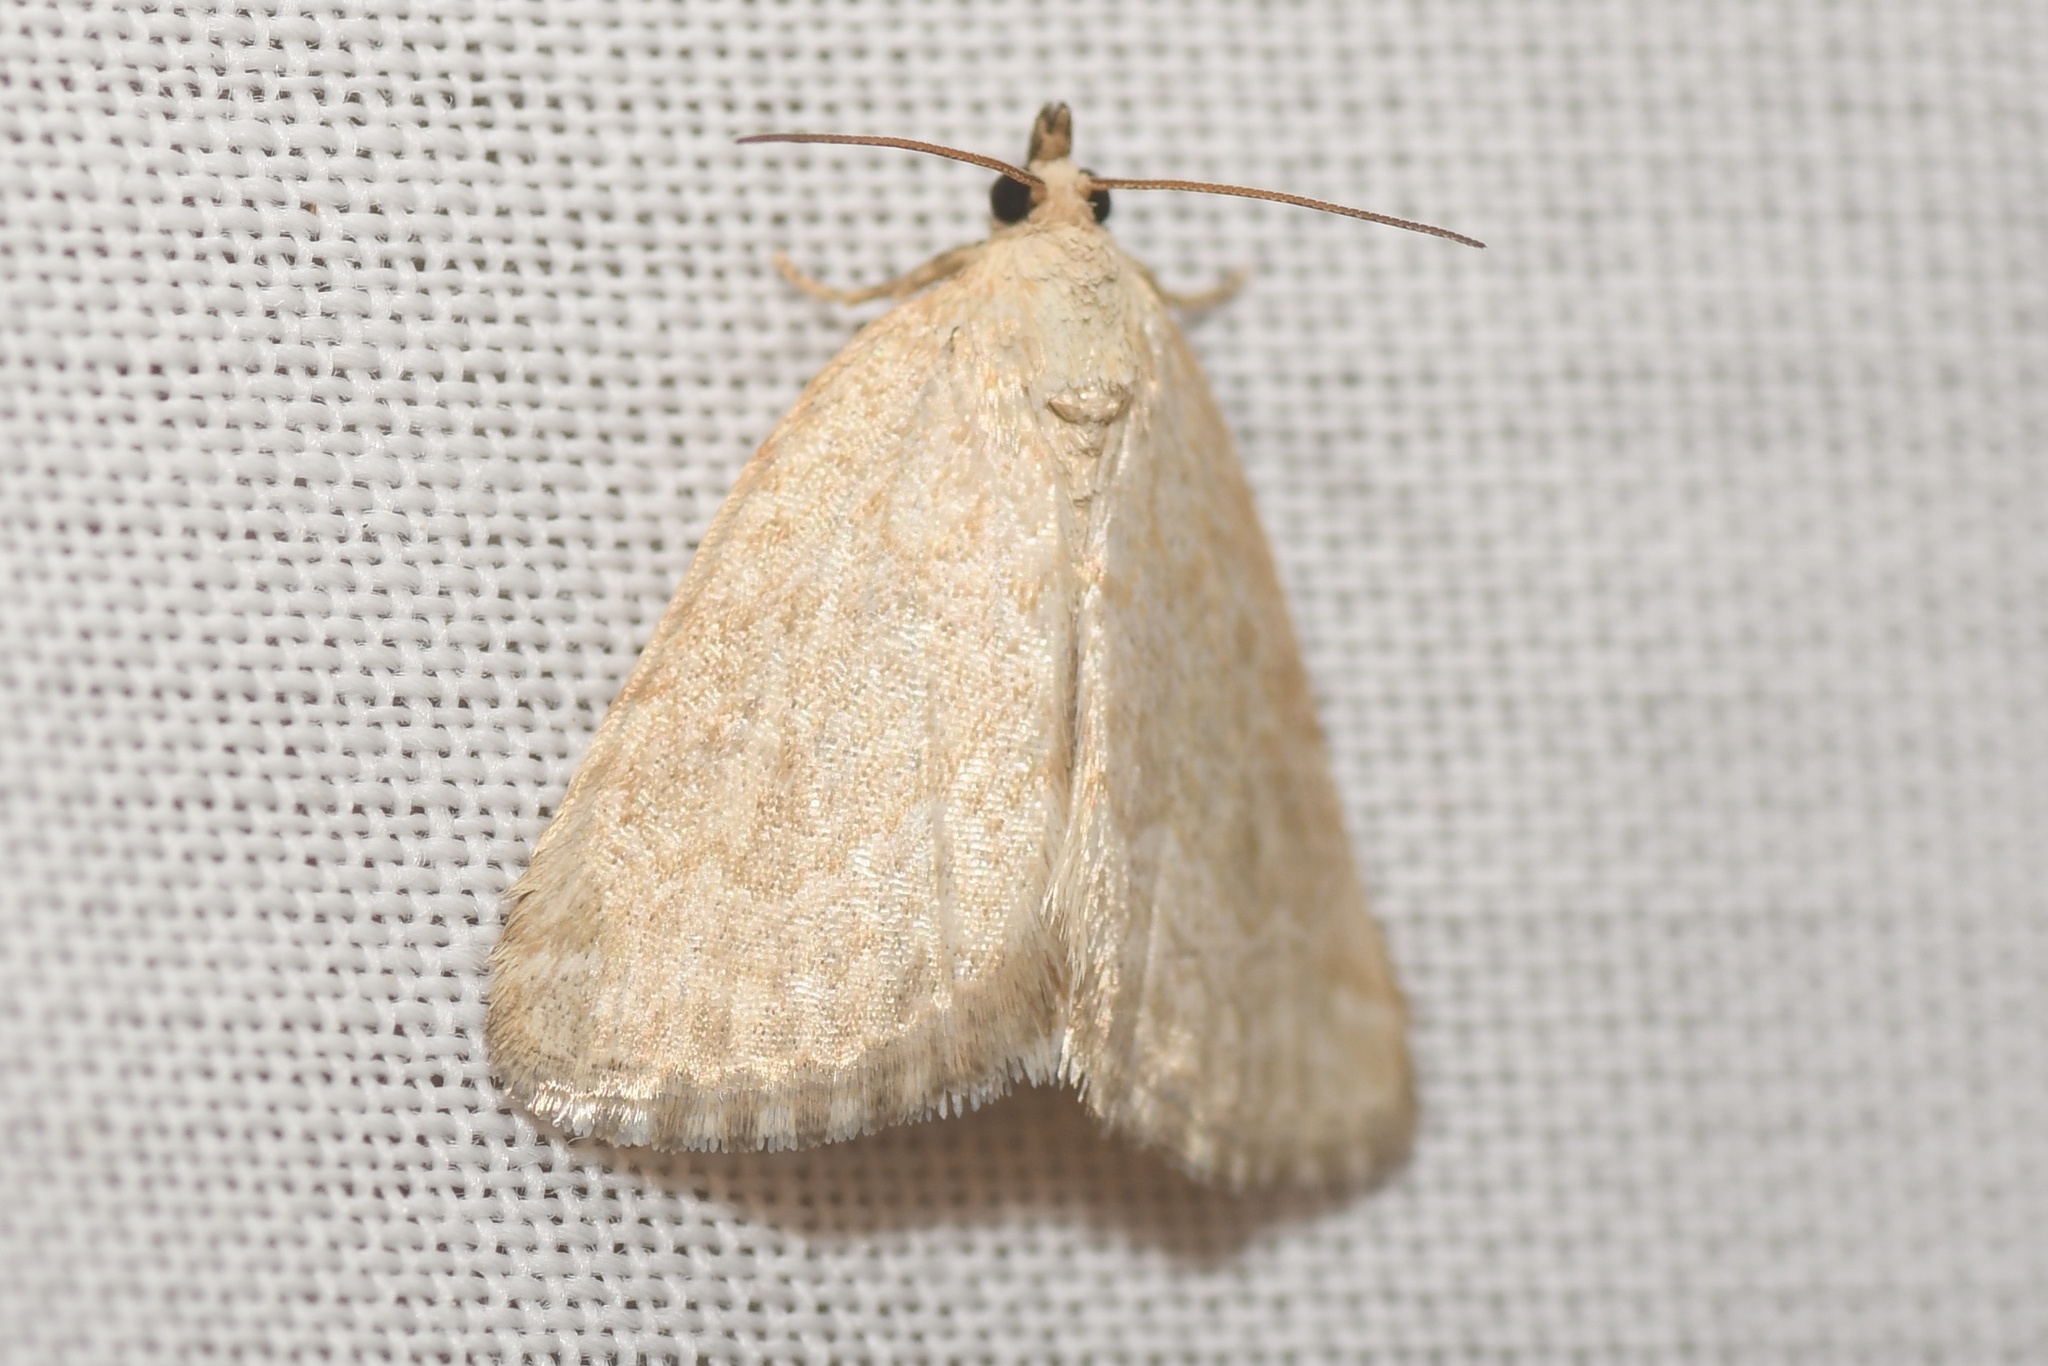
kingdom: Animalia
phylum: Arthropoda
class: Insecta
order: Lepidoptera
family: Noctuidae
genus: Protodeltote
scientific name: Protodeltote albidula
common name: Pale glyph
